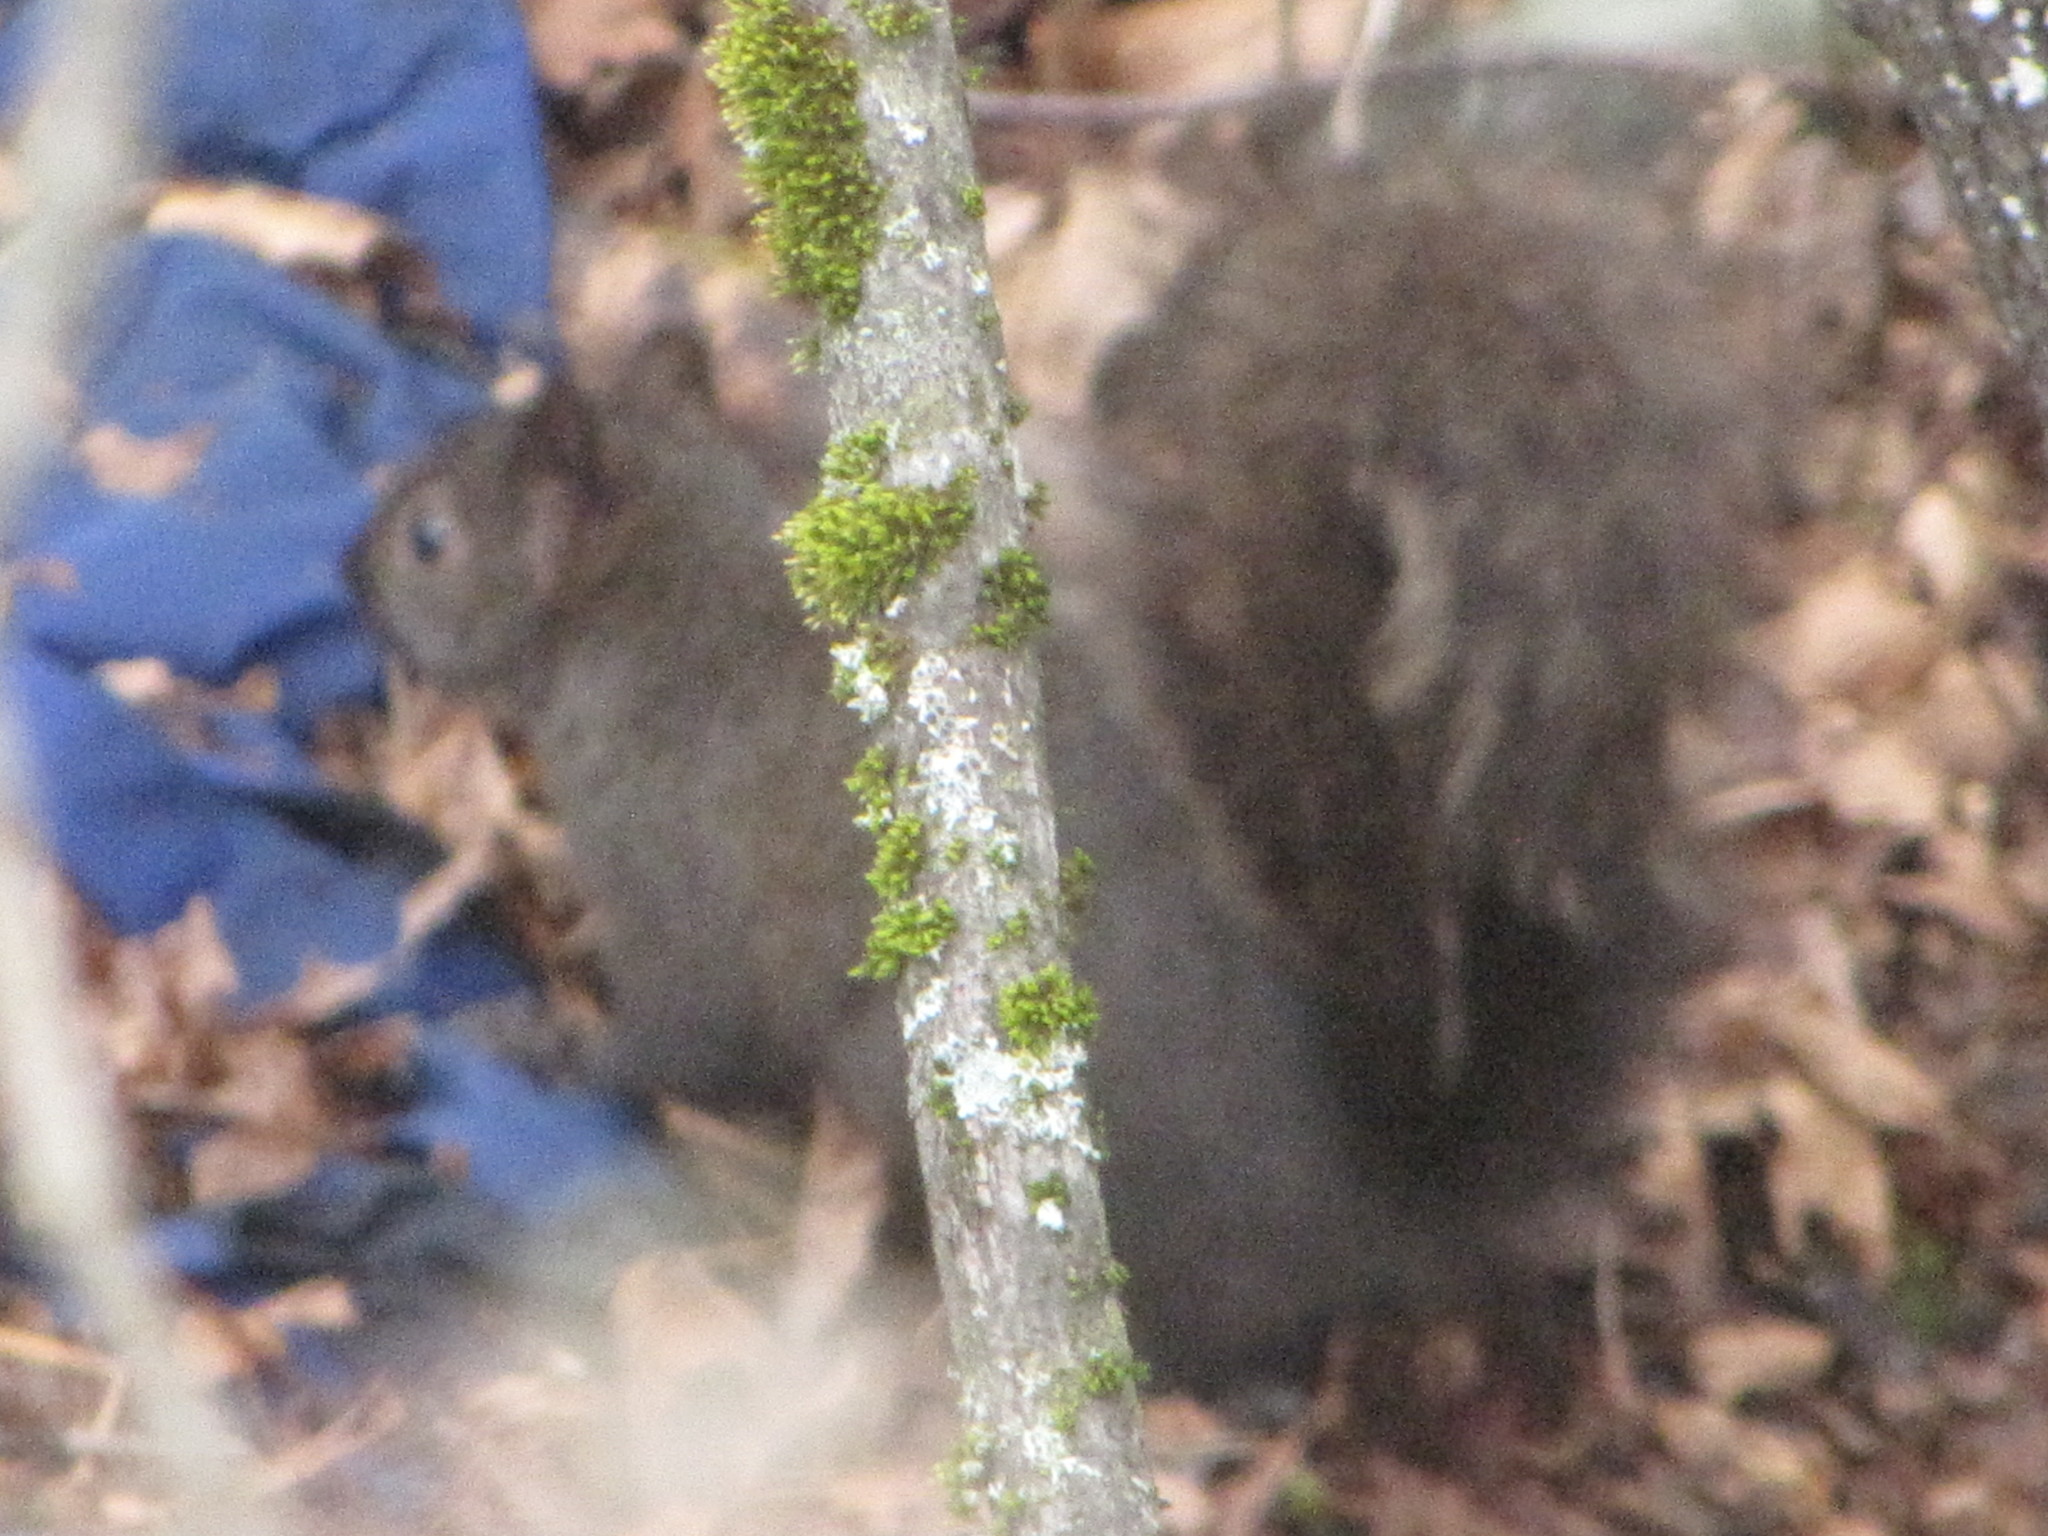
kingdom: Animalia
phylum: Chordata
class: Mammalia
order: Rodentia
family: Sciuridae
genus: Sciurus
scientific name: Sciurus carolinensis
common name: Eastern gray squirrel
